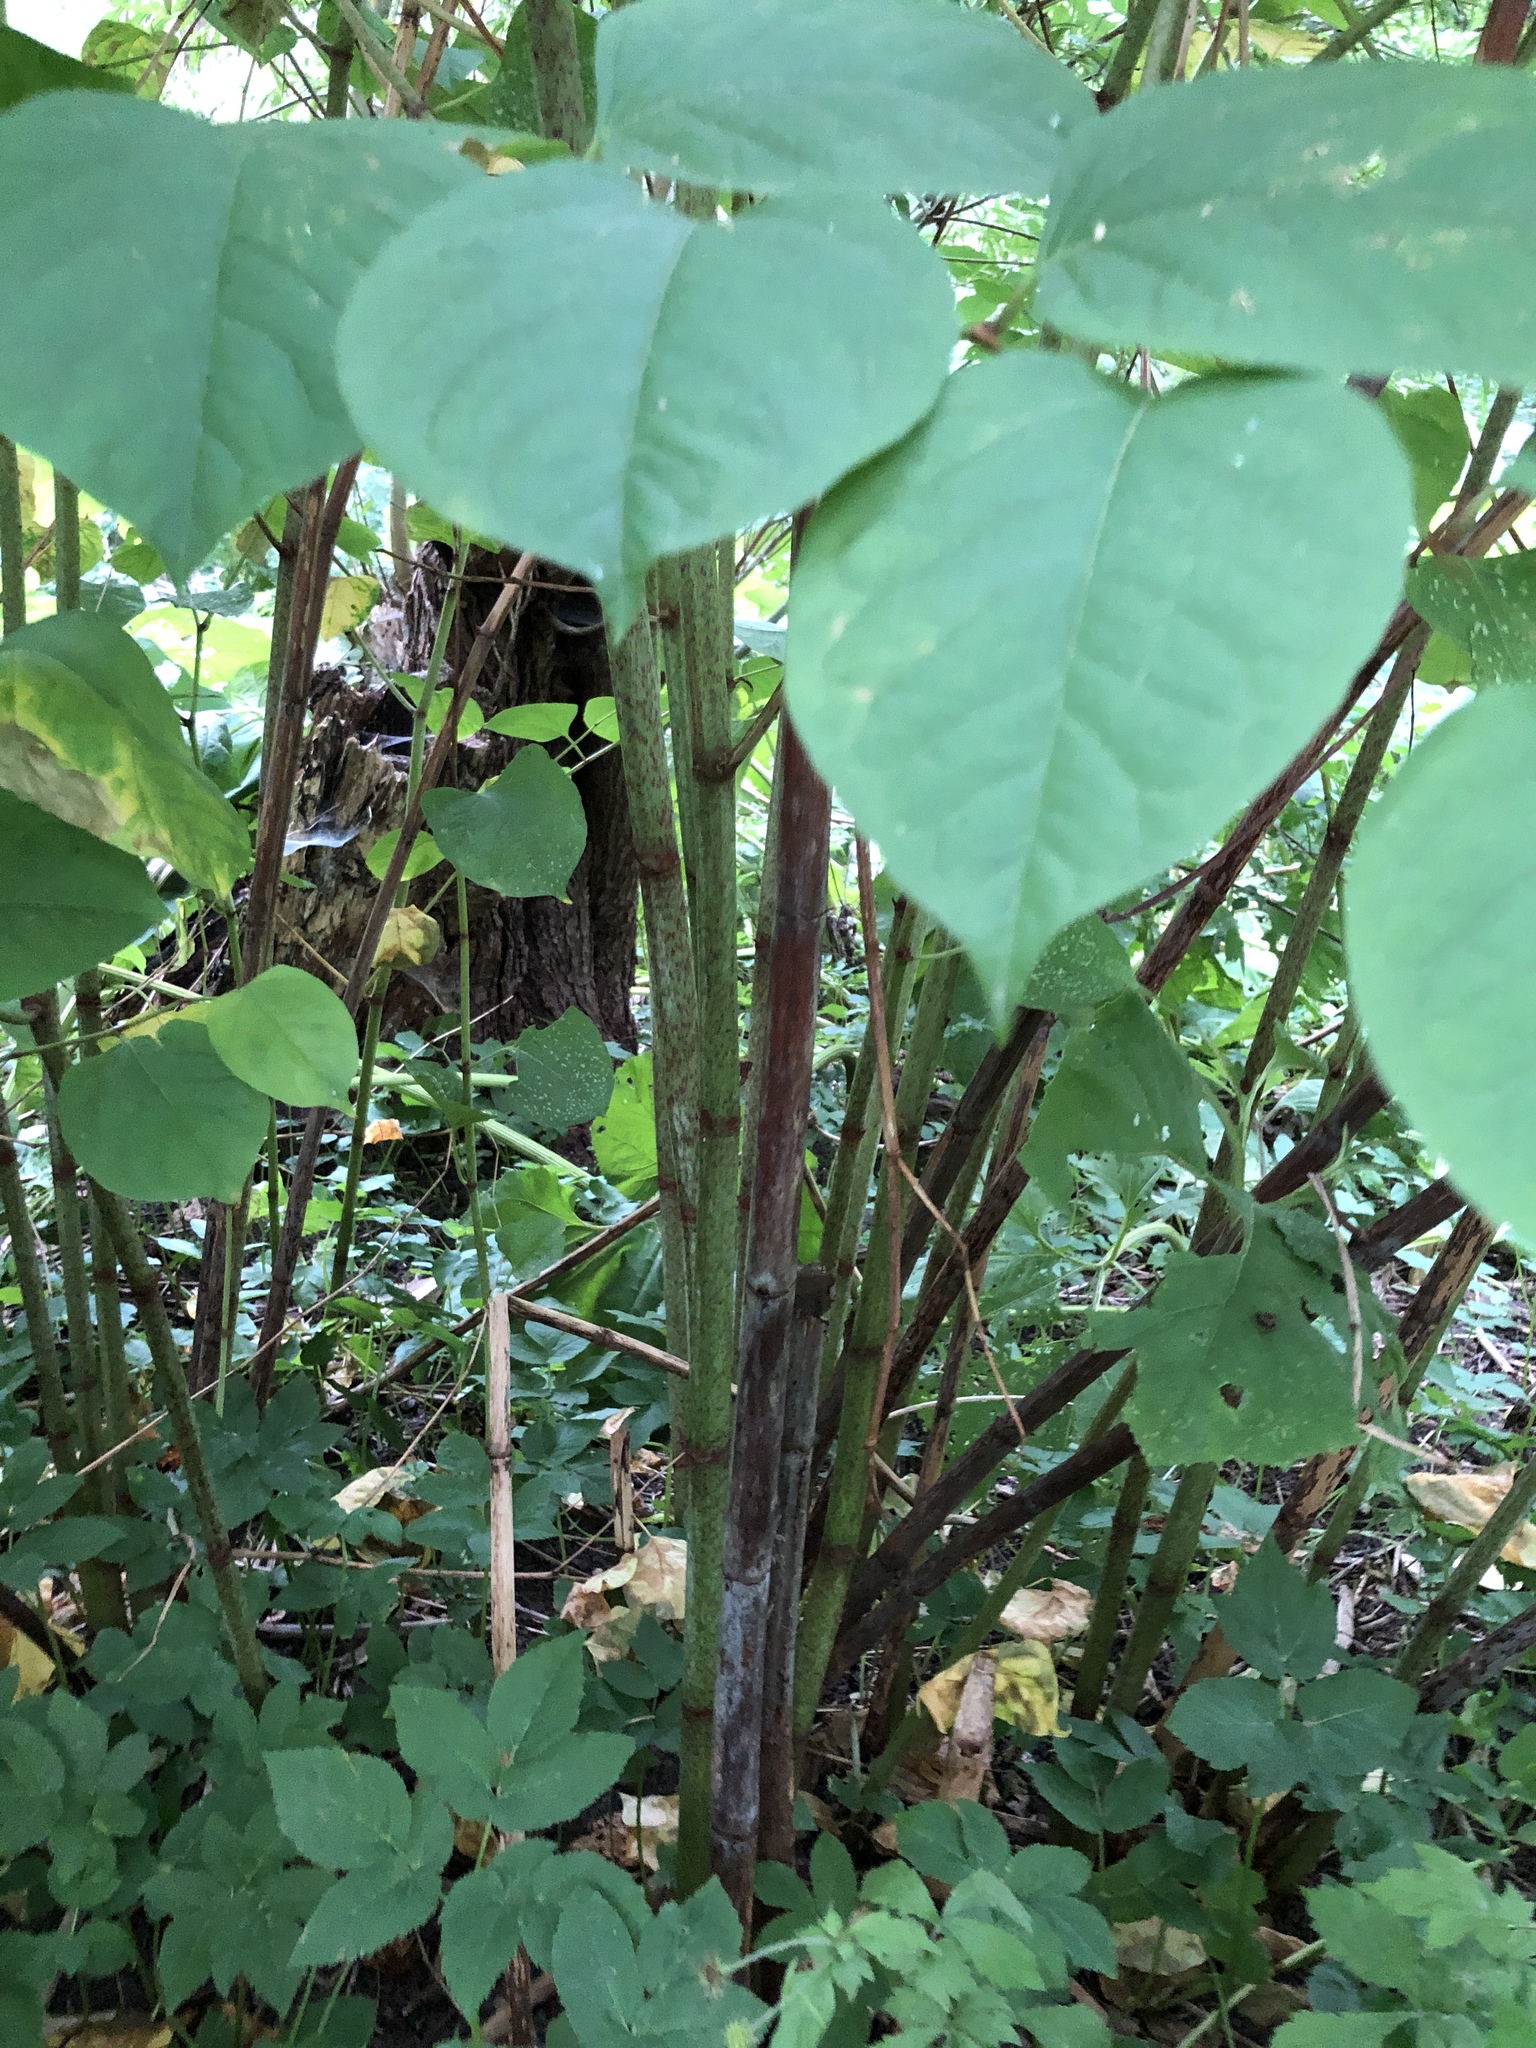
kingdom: Plantae
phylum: Tracheophyta
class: Magnoliopsida
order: Caryophyllales
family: Polygonaceae
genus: Reynoutria
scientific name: Reynoutria japonica
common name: Japanese knotweed
